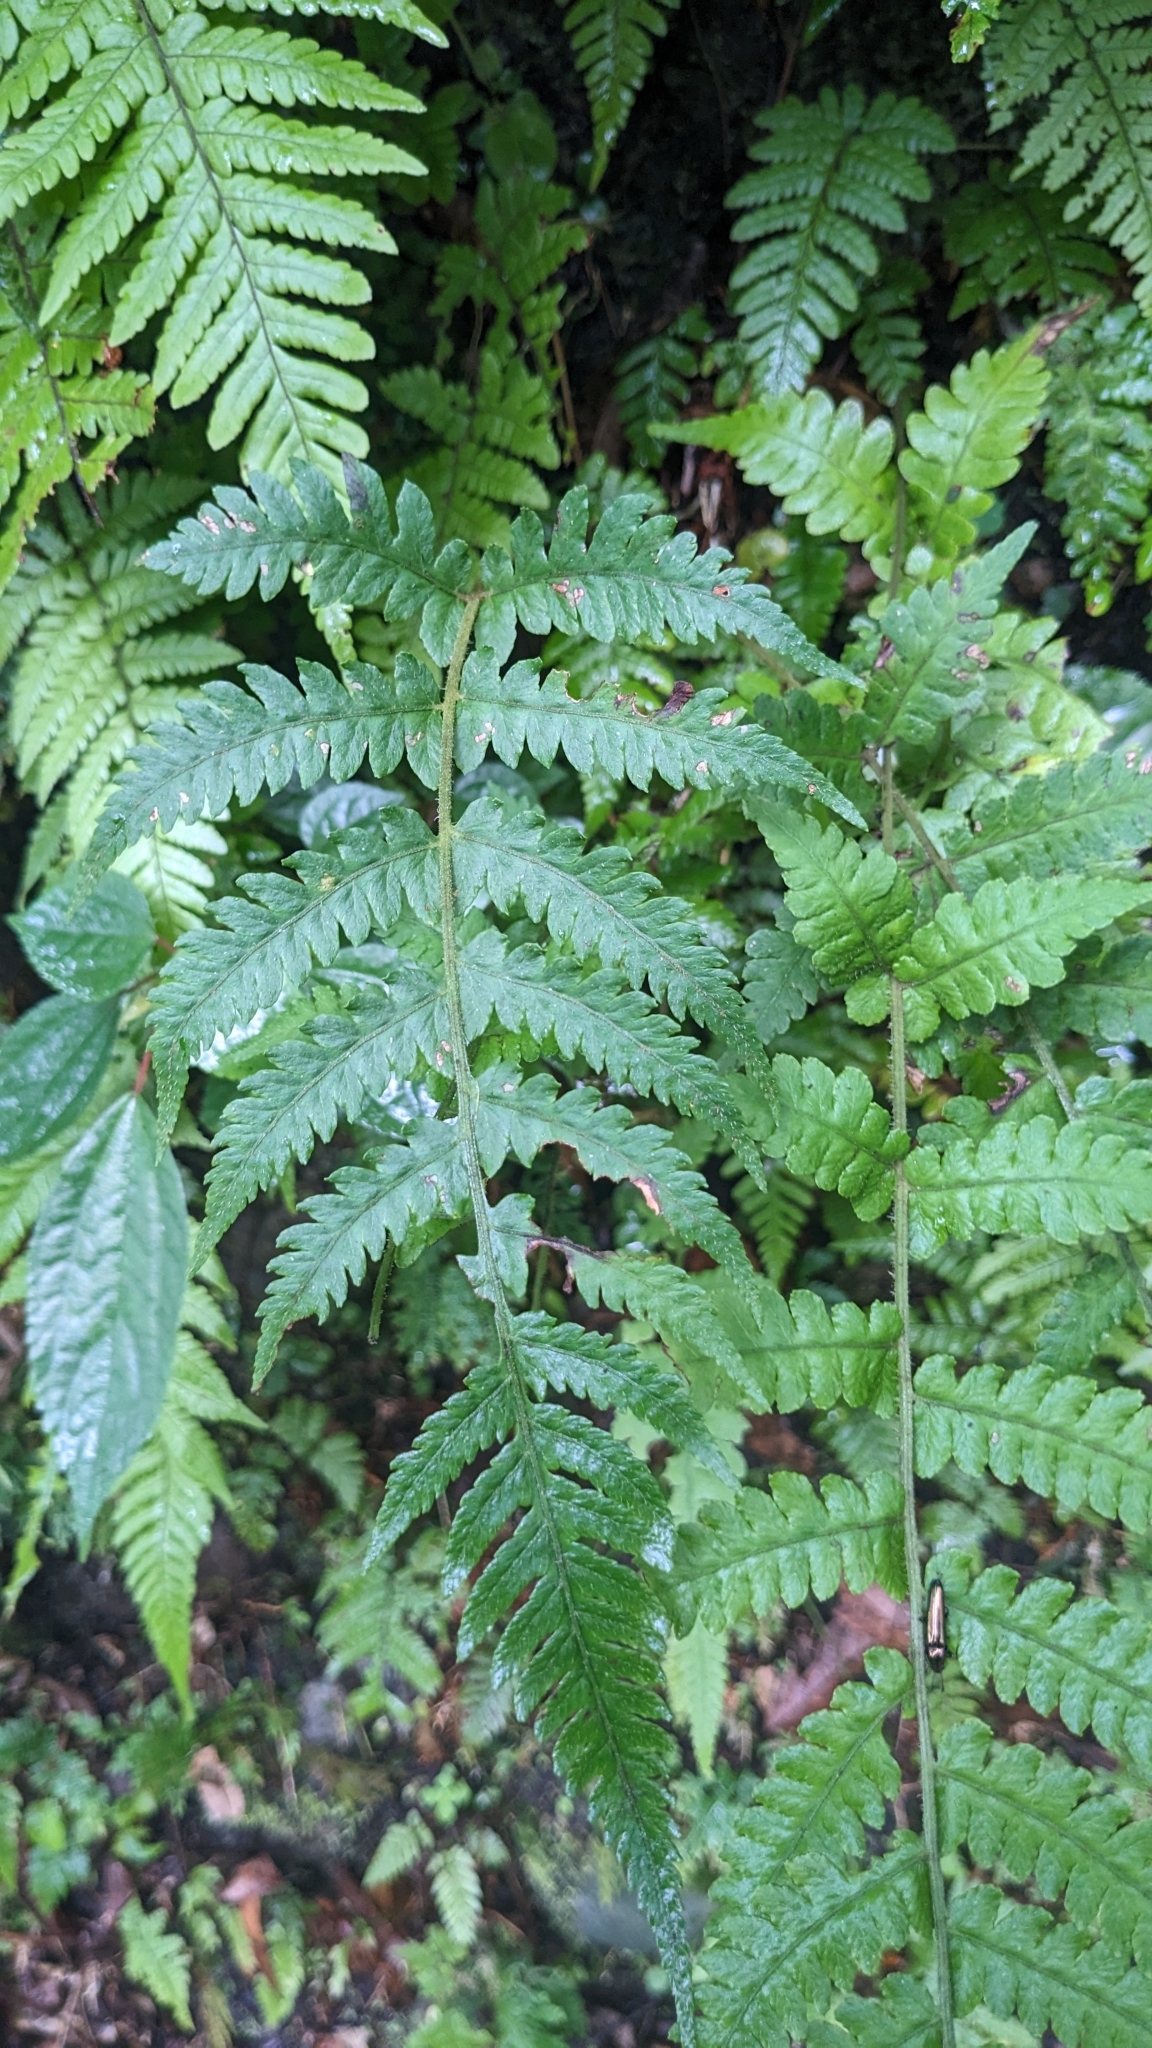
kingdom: Plantae
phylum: Tracheophyta
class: Polypodiopsida
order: Polypodiales
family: Athyriaceae
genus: Deparia
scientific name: Deparia petersenii
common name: Japanese false spleenwort
